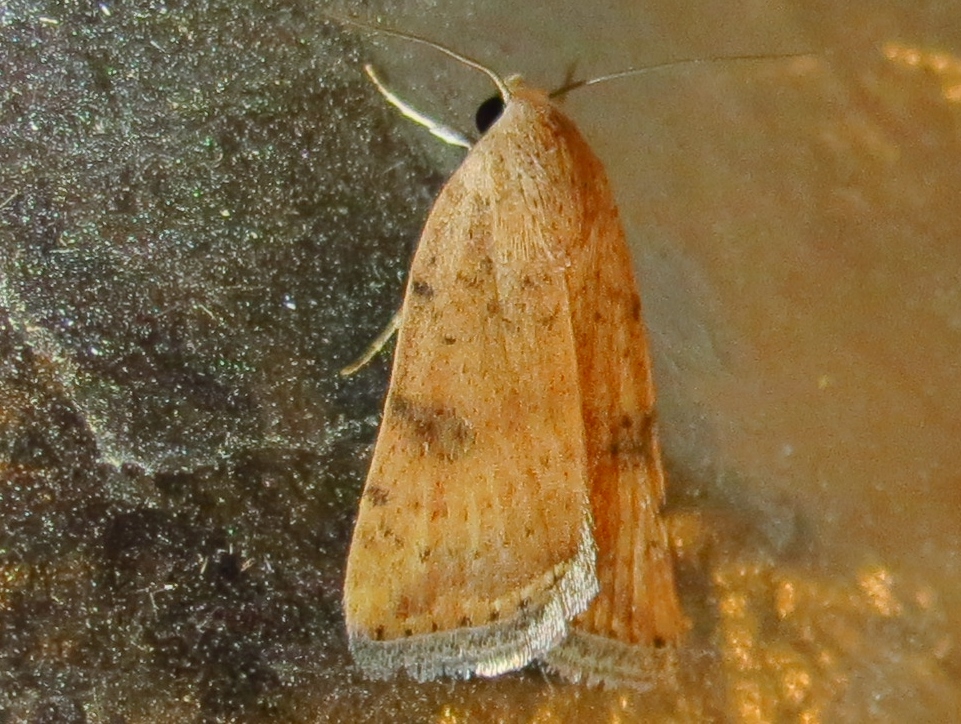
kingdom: Animalia
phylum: Arthropoda
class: Insecta
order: Lepidoptera
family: Noctuidae
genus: Micrathetis
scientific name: Micrathetis triplex
